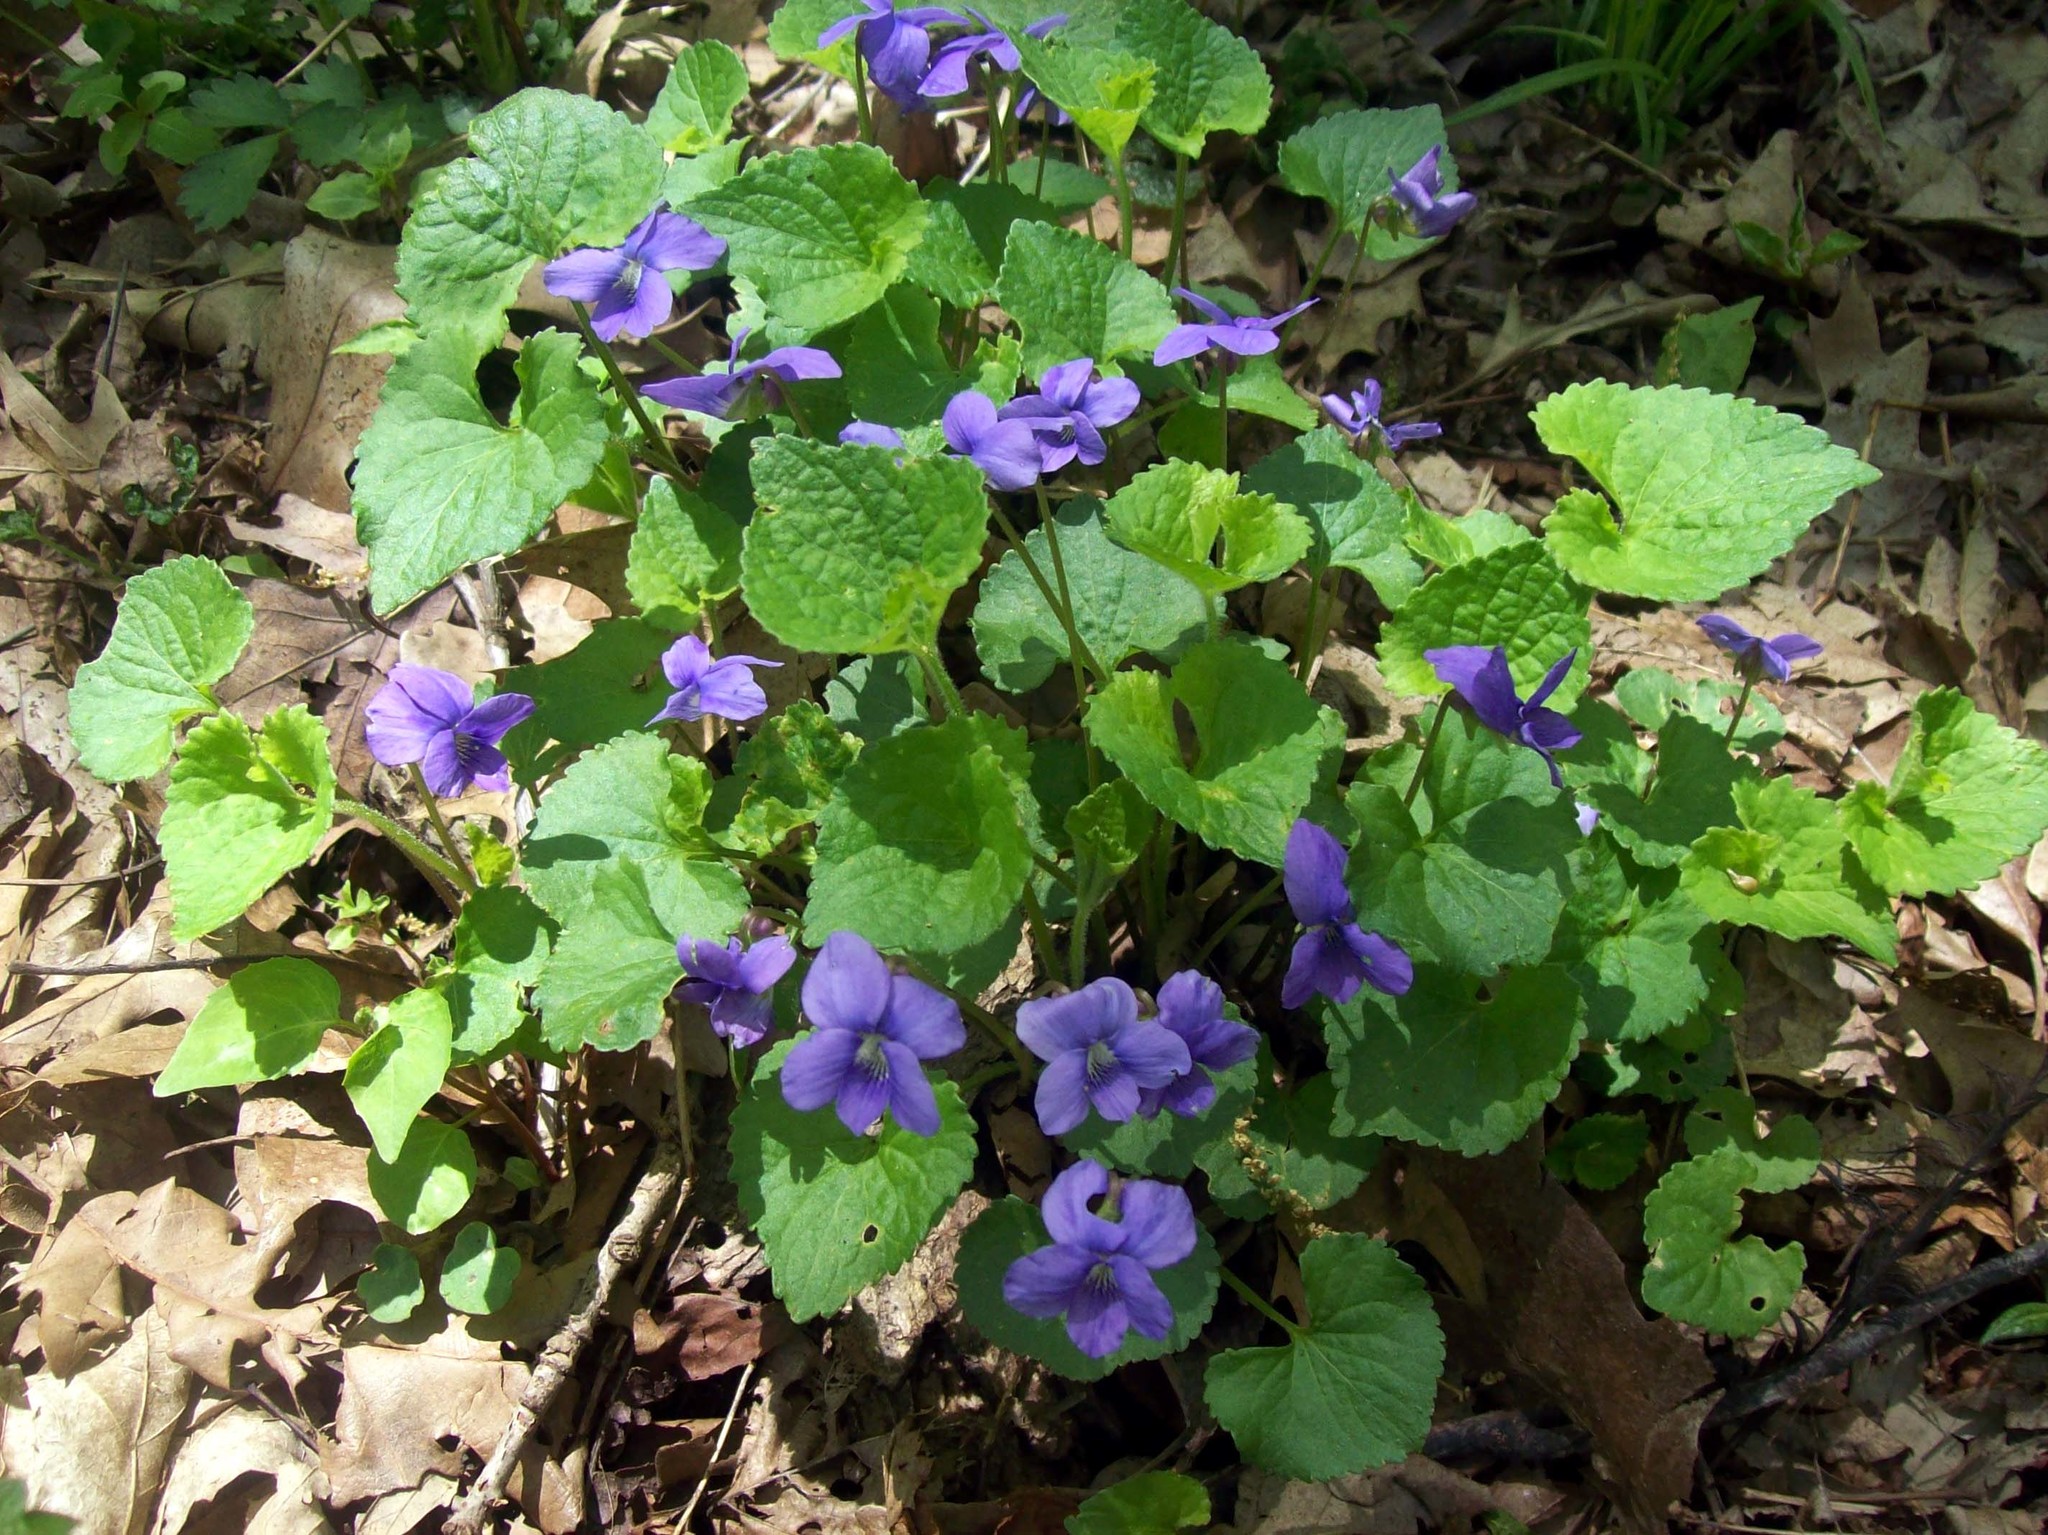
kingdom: Plantae
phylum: Tracheophyta
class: Magnoliopsida
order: Malpighiales
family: Violaceae
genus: Viola
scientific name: Viola sororia
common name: Dooryard violet
